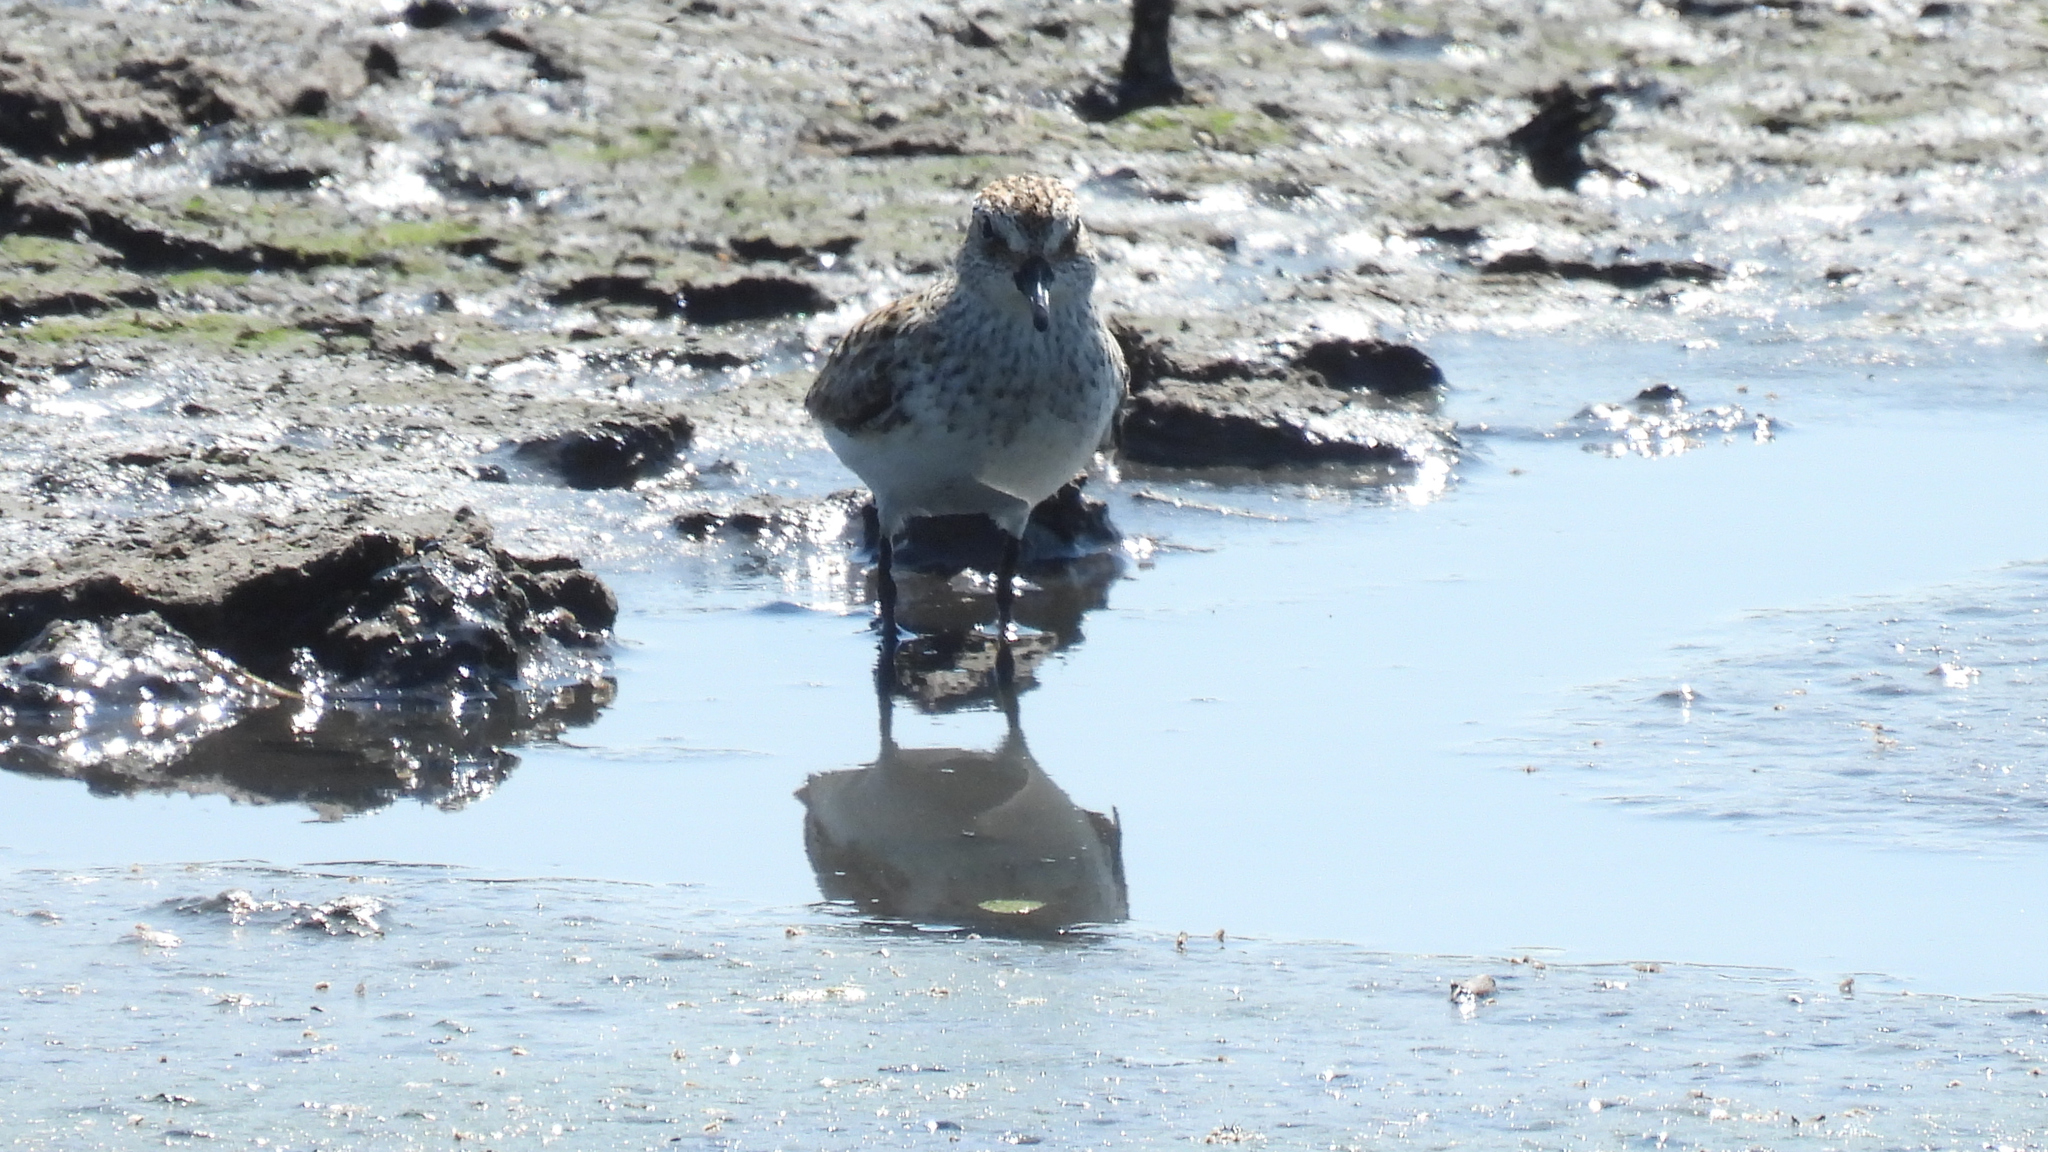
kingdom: Animalia
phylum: Chordata
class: Aves
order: Charadriiformes
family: Scolopacidae
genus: Calidris
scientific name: Calidris pusilla
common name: Semipalmated sandpiper
